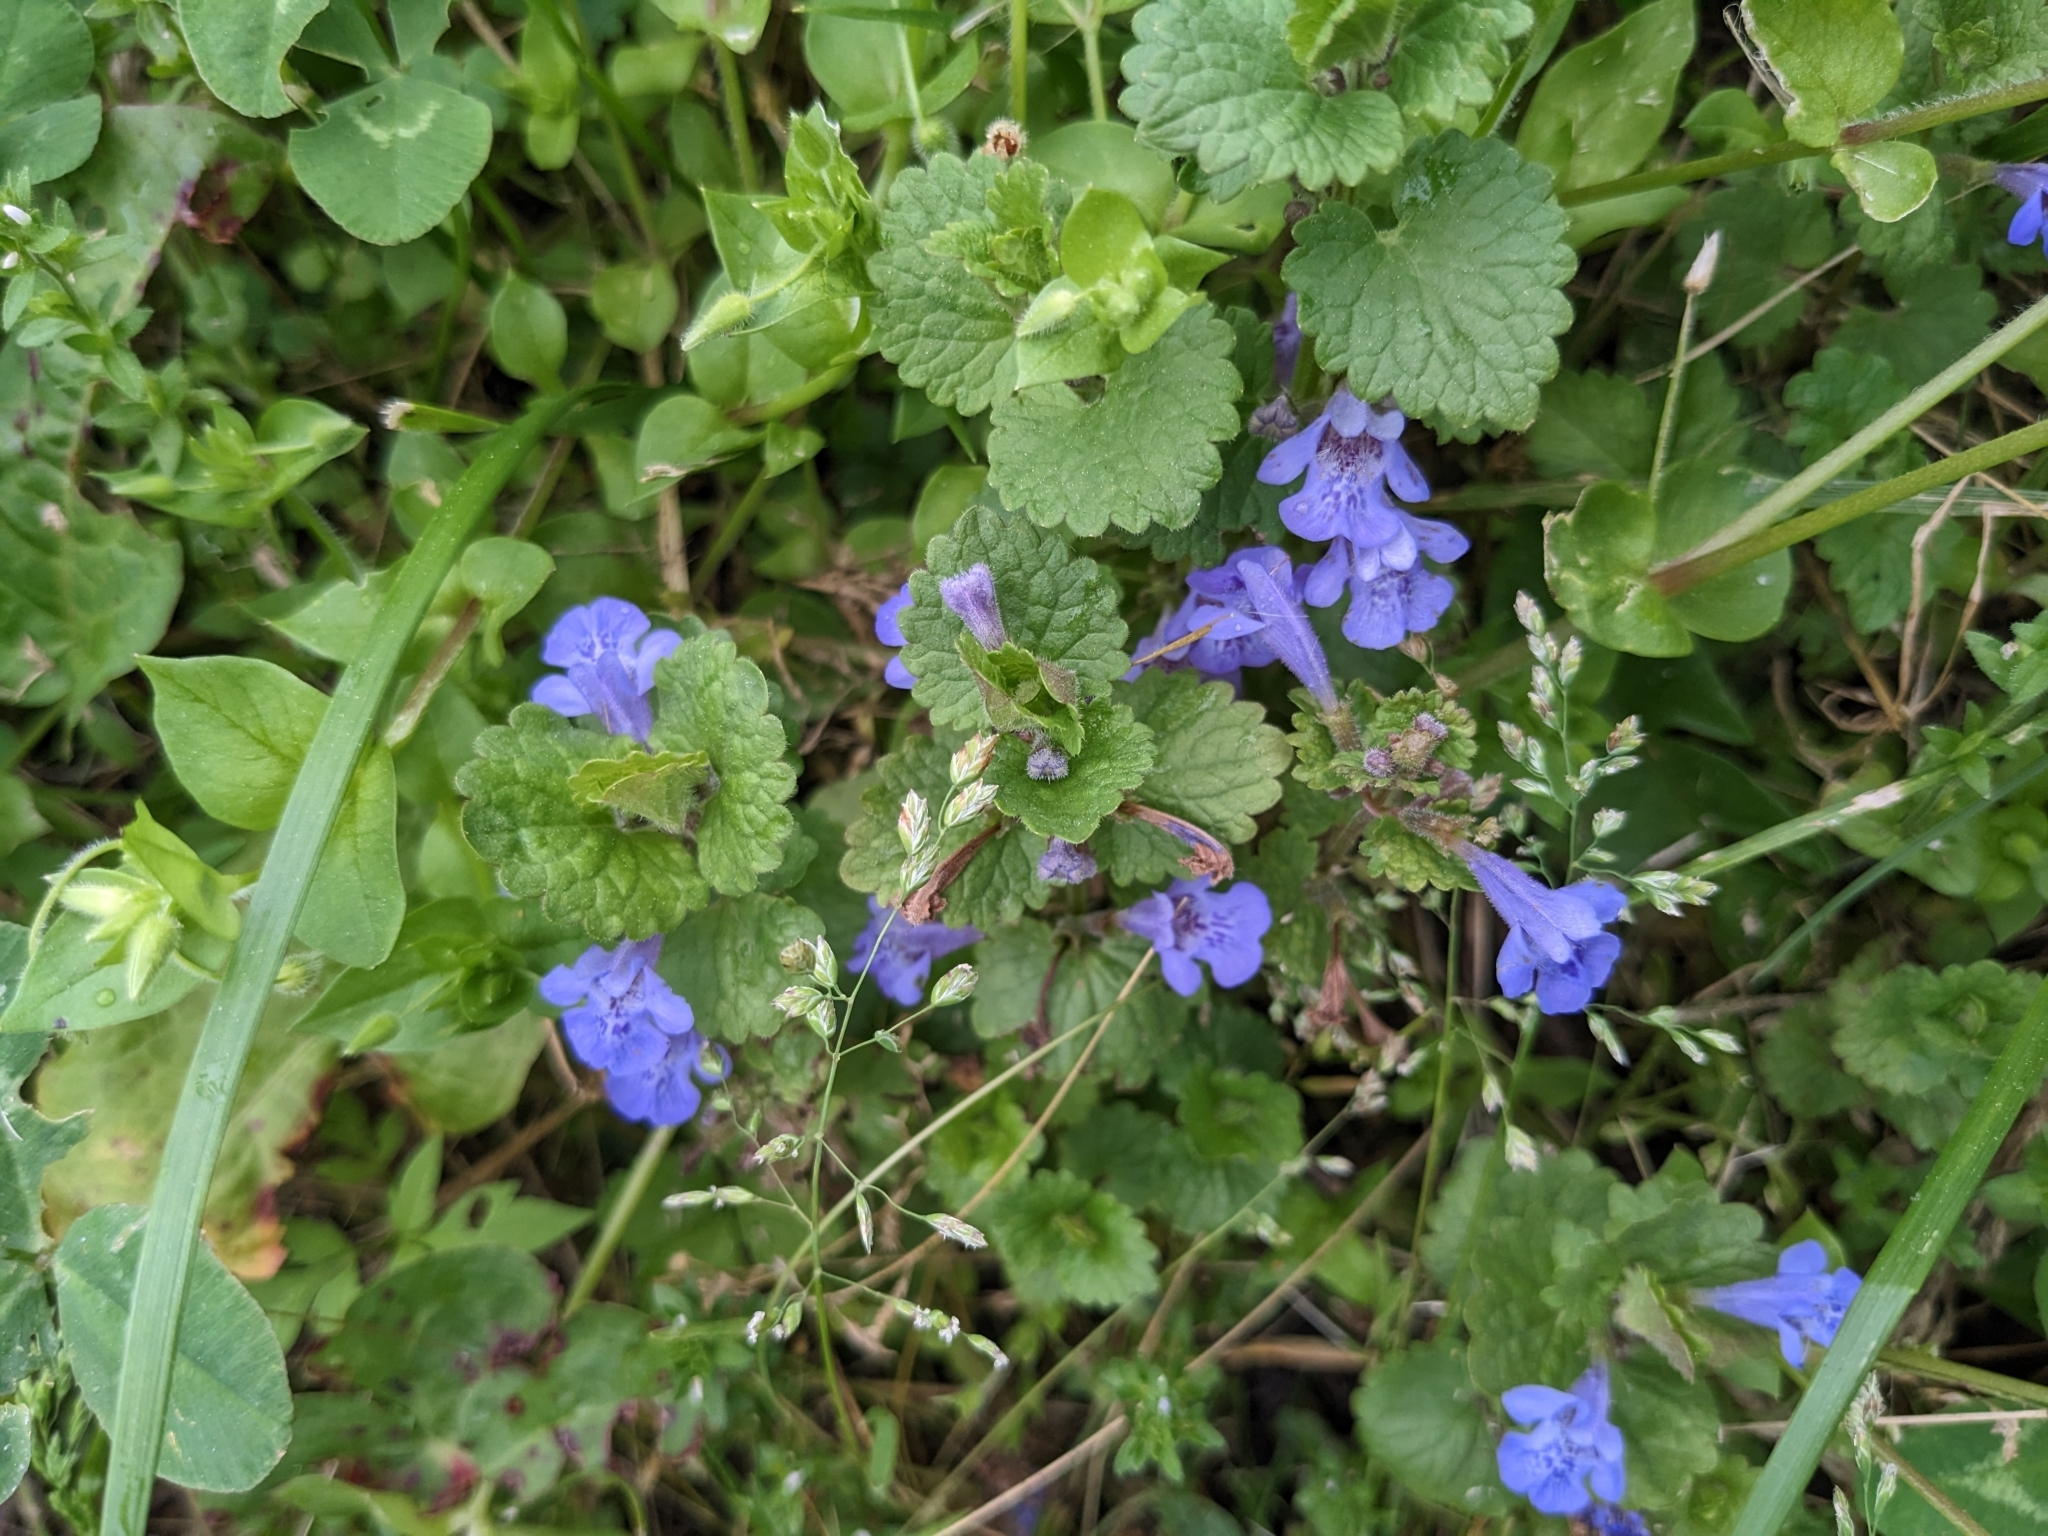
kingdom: Plantae
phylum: Tracheophyta
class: Magnoliopsida
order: Lamiales
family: Lamiaceae
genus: Glechoma
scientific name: Glechoma hederacea
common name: Ground ivy
